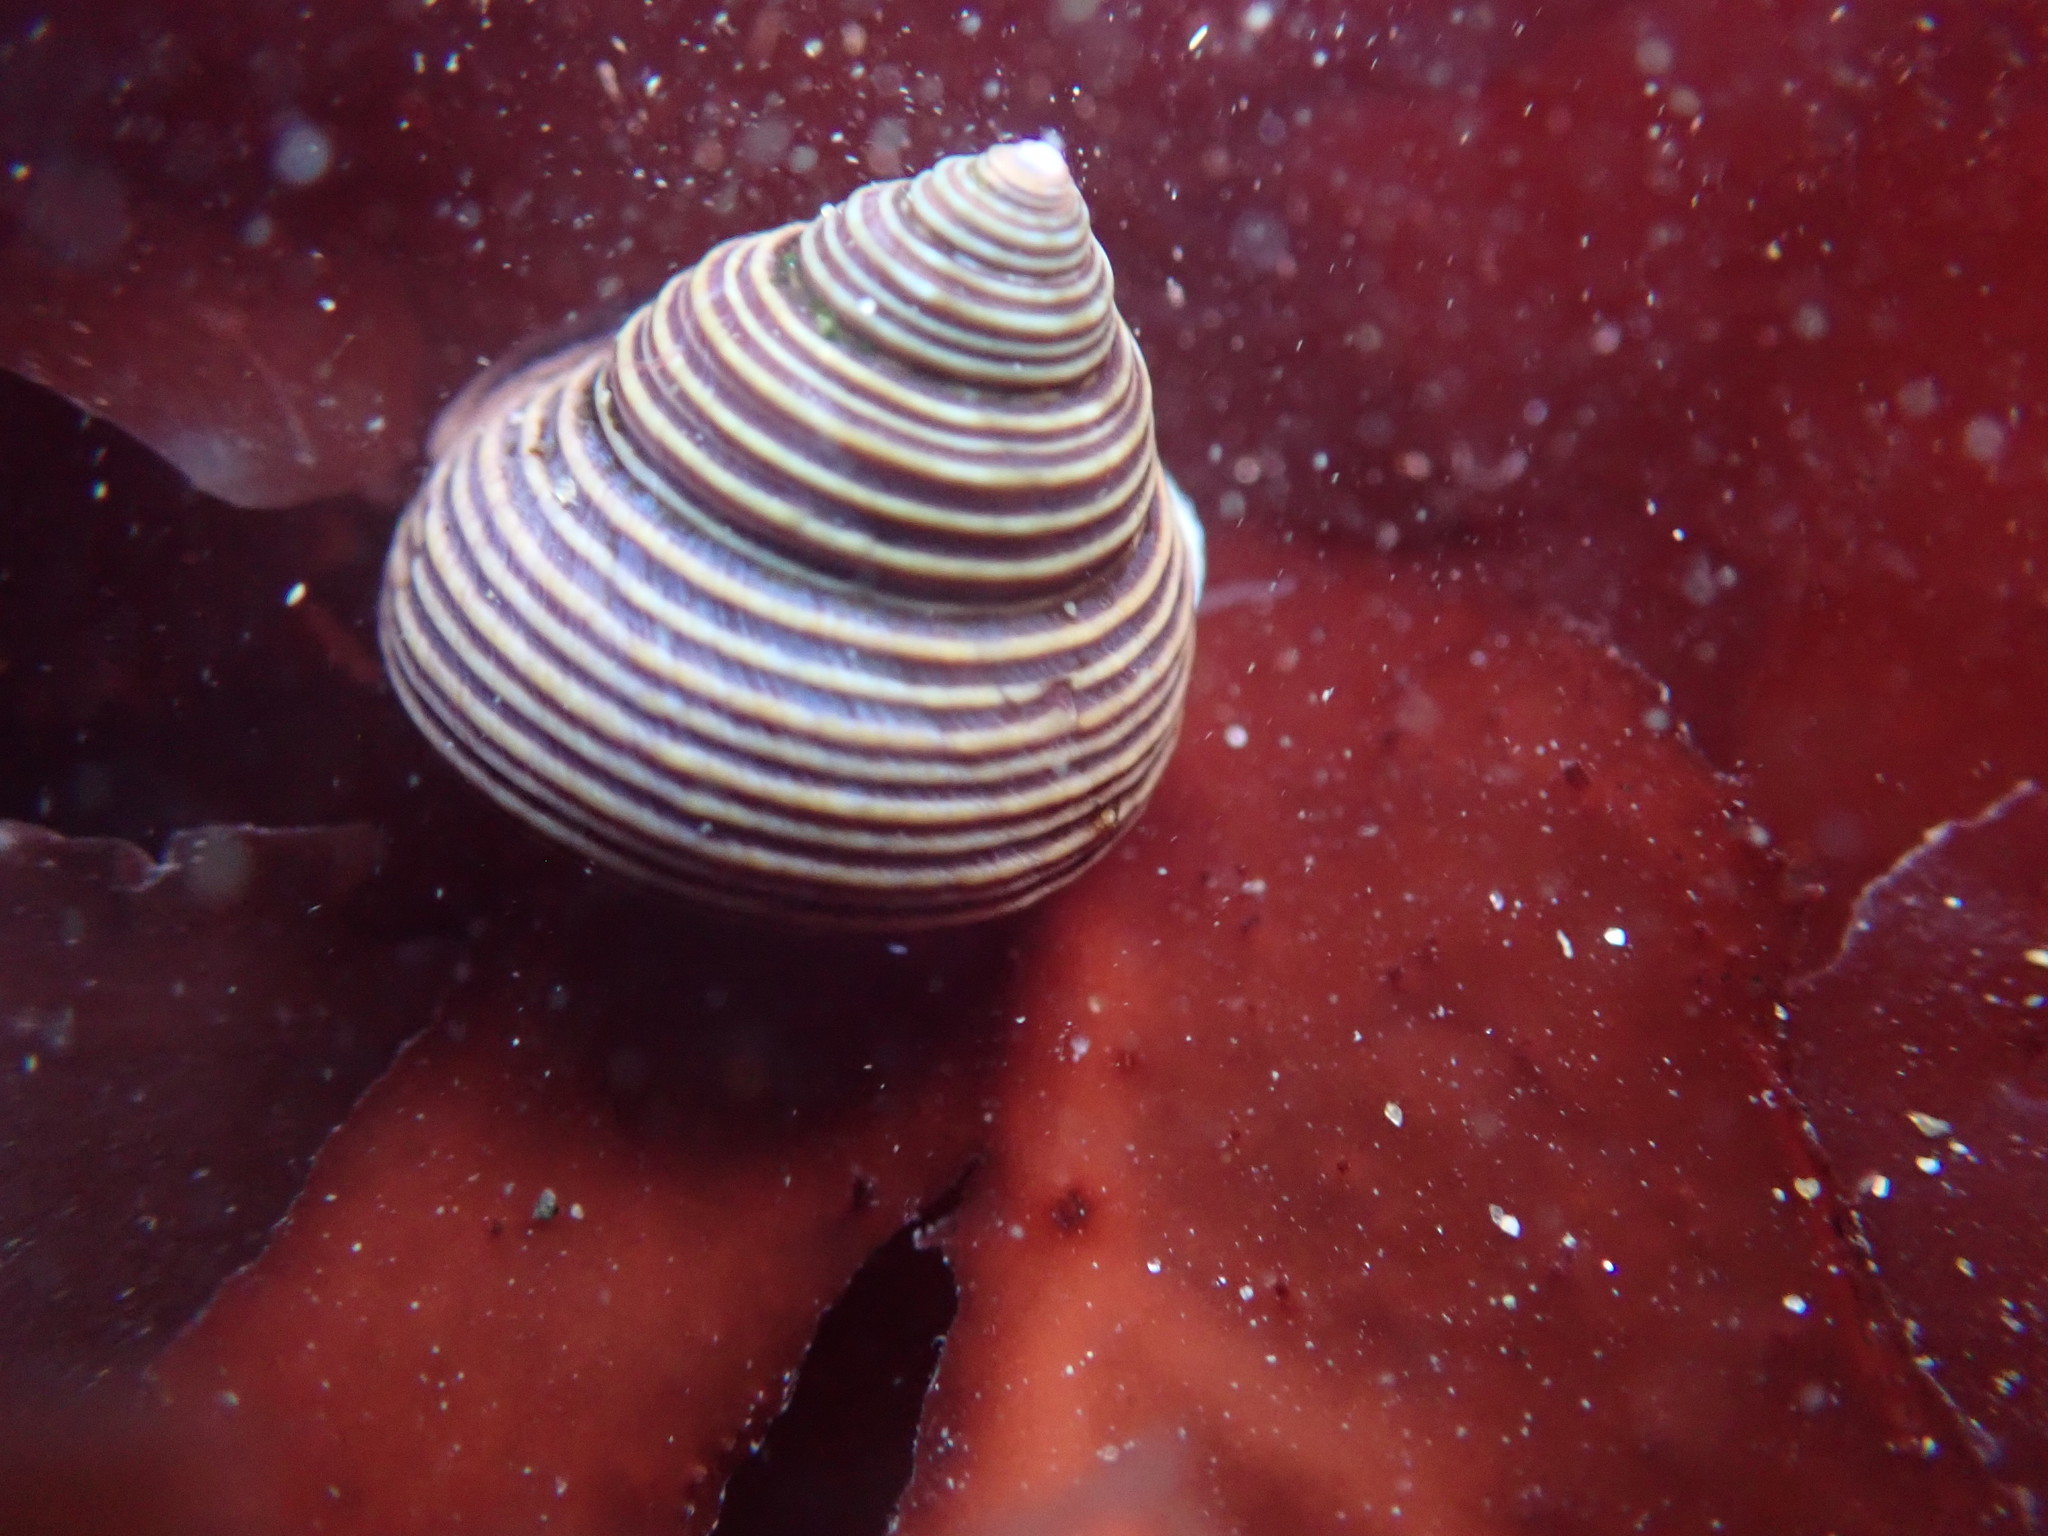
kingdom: Animalia
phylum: Mollusca
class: Gastropoda
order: Trochida
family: Calliostomatidae
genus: Calliostoma
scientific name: Calliostoma ligatum
